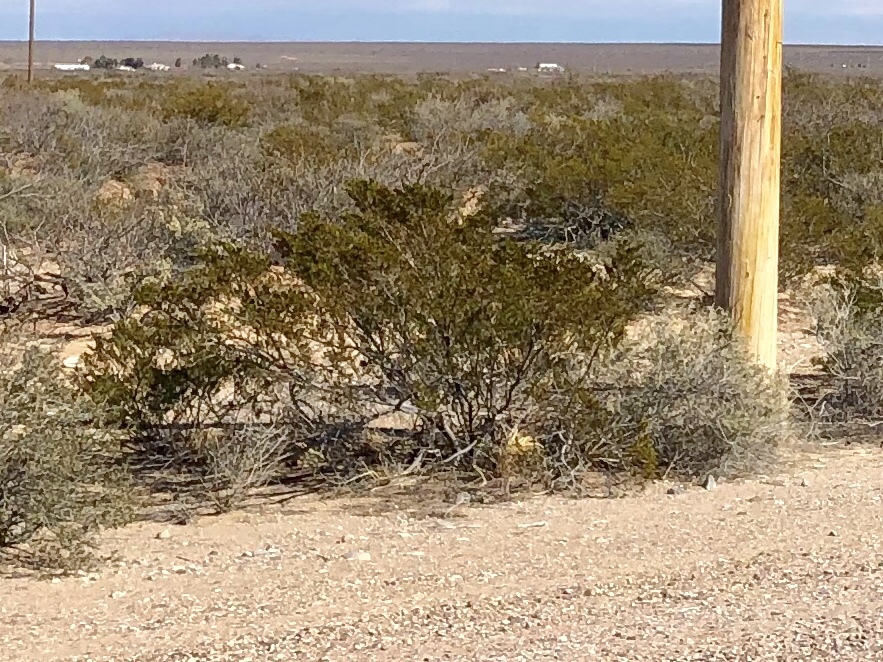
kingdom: Plantae
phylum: Tracheophyta
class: Magnoliopsida
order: Zygophyllales
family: Zygophyllaceae
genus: Larrea
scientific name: Larrea tridentata
